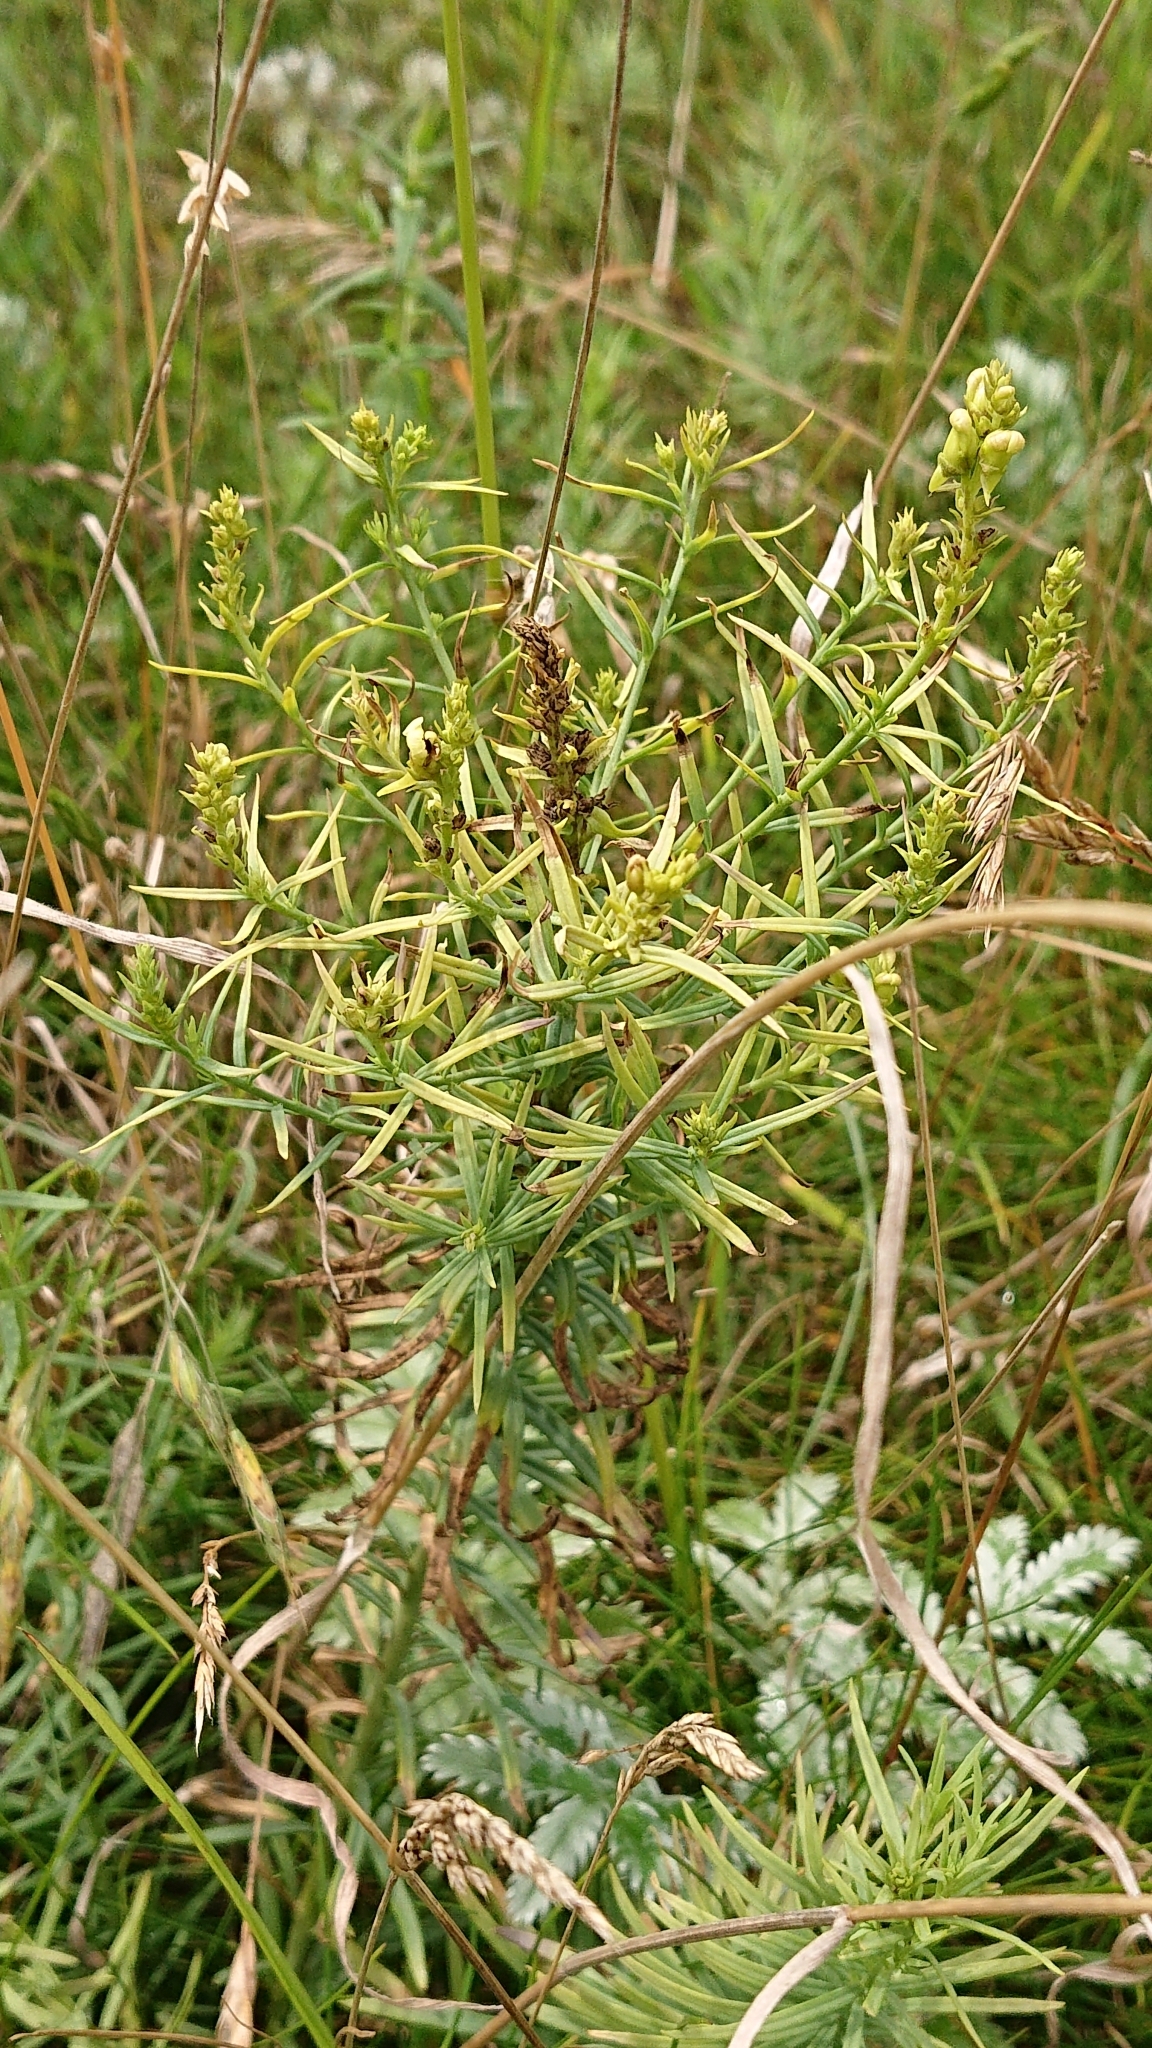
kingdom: Plantae
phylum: Tracheophyta
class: Magnoliopsida
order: Lamiales
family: Plantaginaceae
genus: Linaria
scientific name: Linaria vulgaris
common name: Butter and eggs
